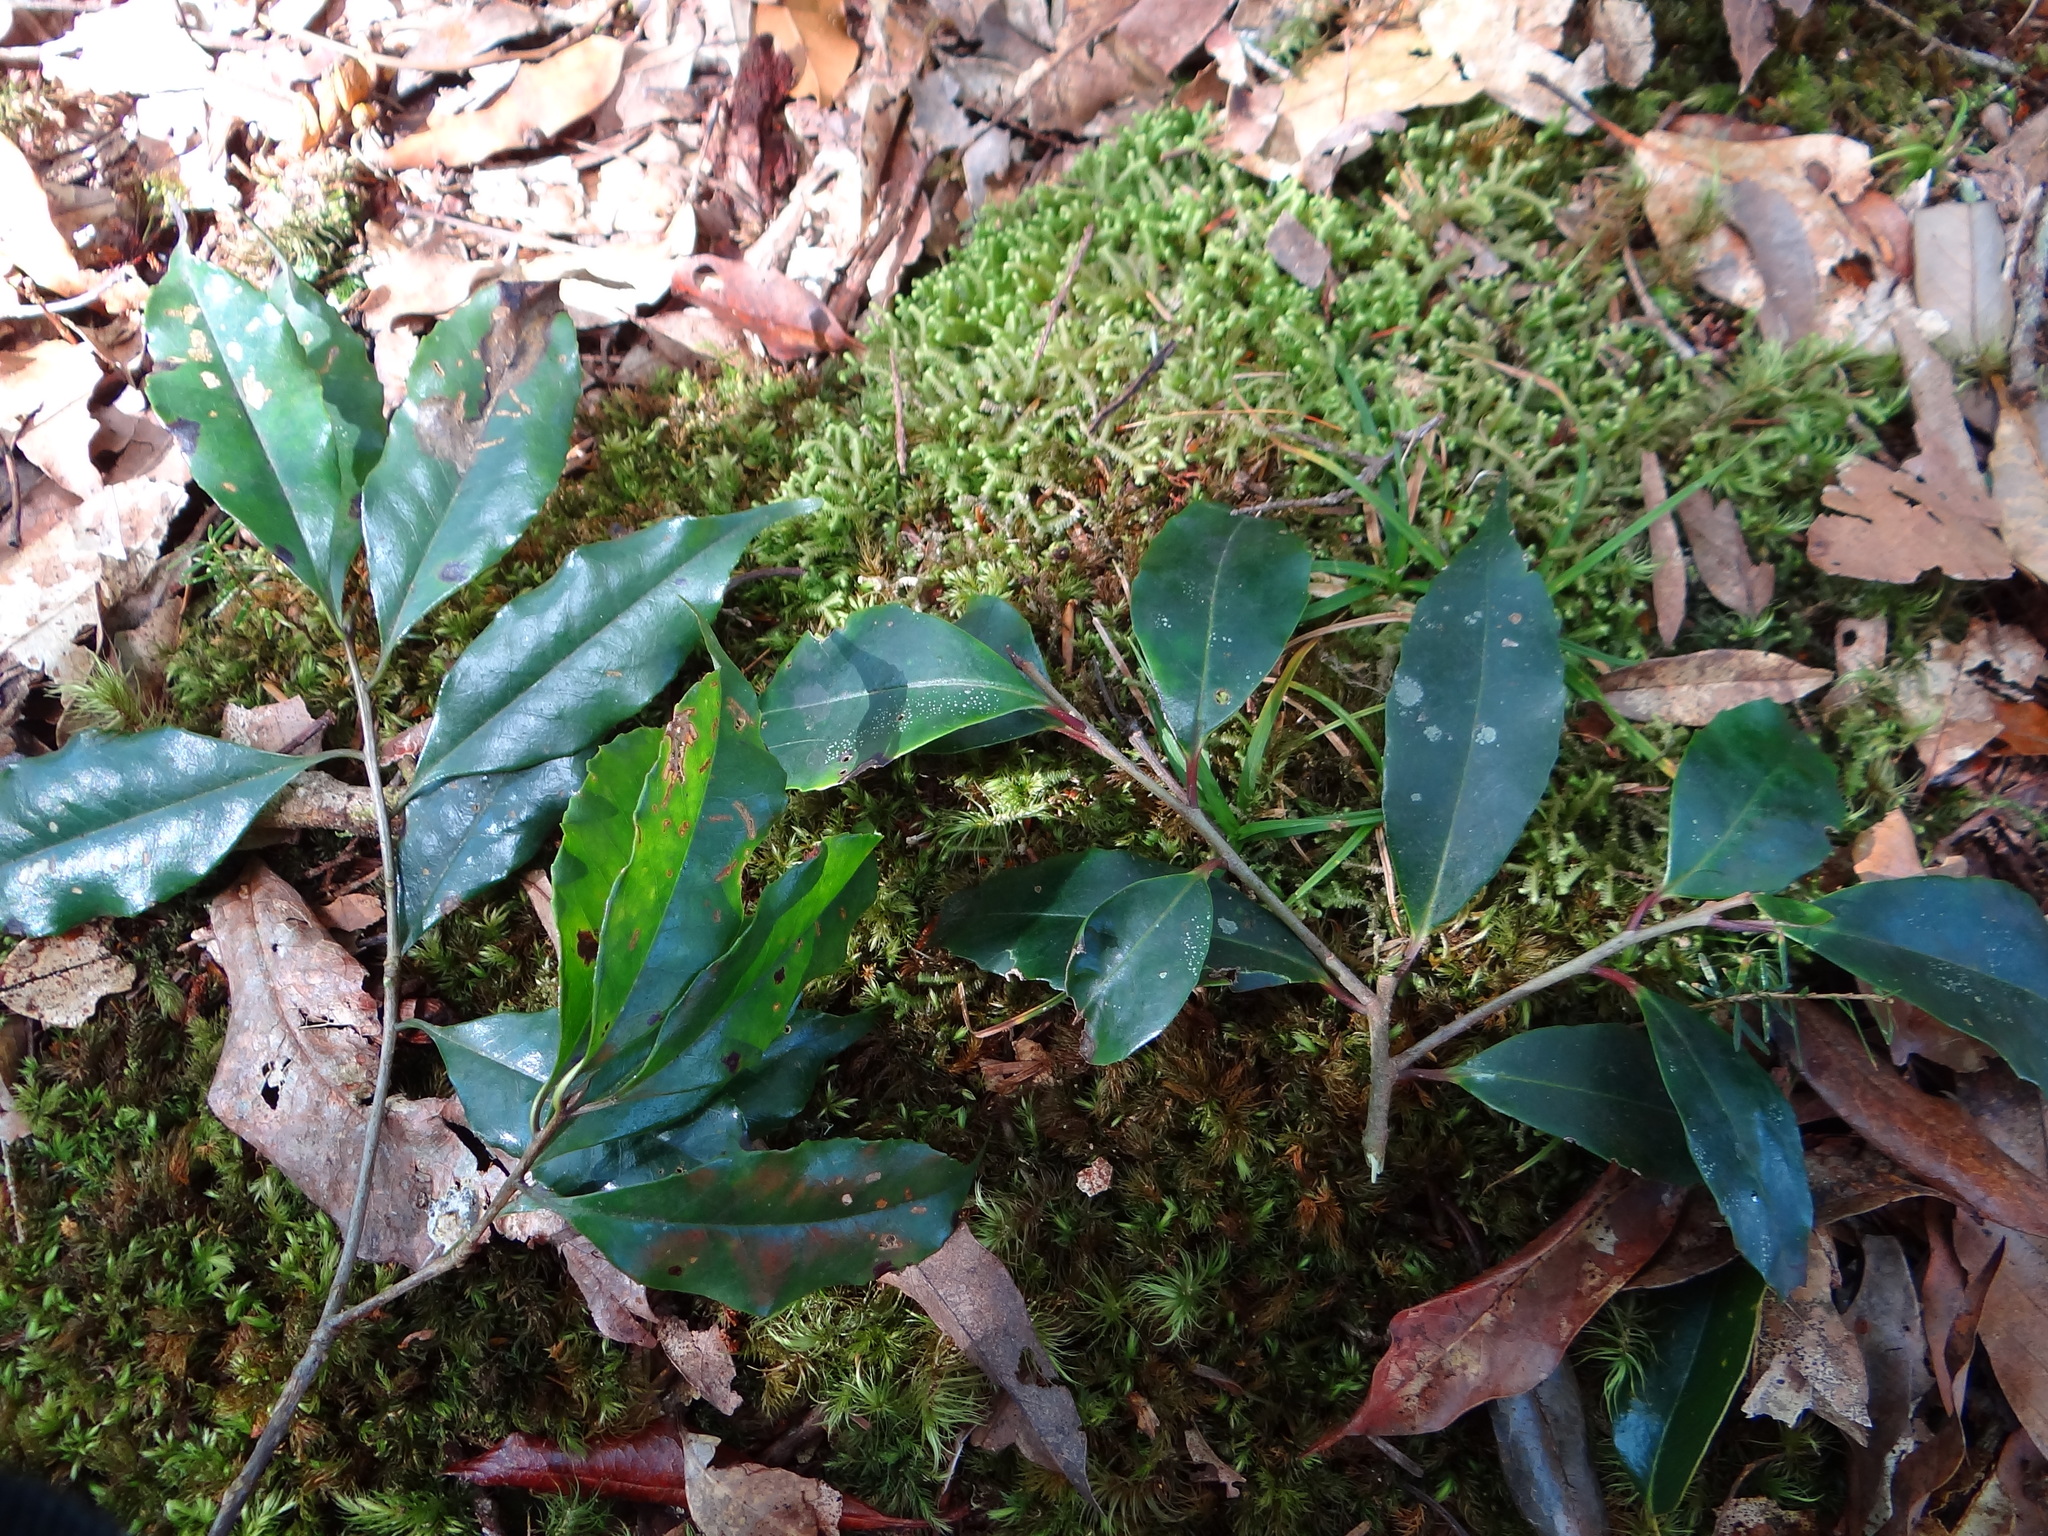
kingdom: Plantae
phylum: Tracheophyta
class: Magnoliopsida
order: Ericales
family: Symplocaceae
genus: Symplocos
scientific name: Symplocos sonoharae
